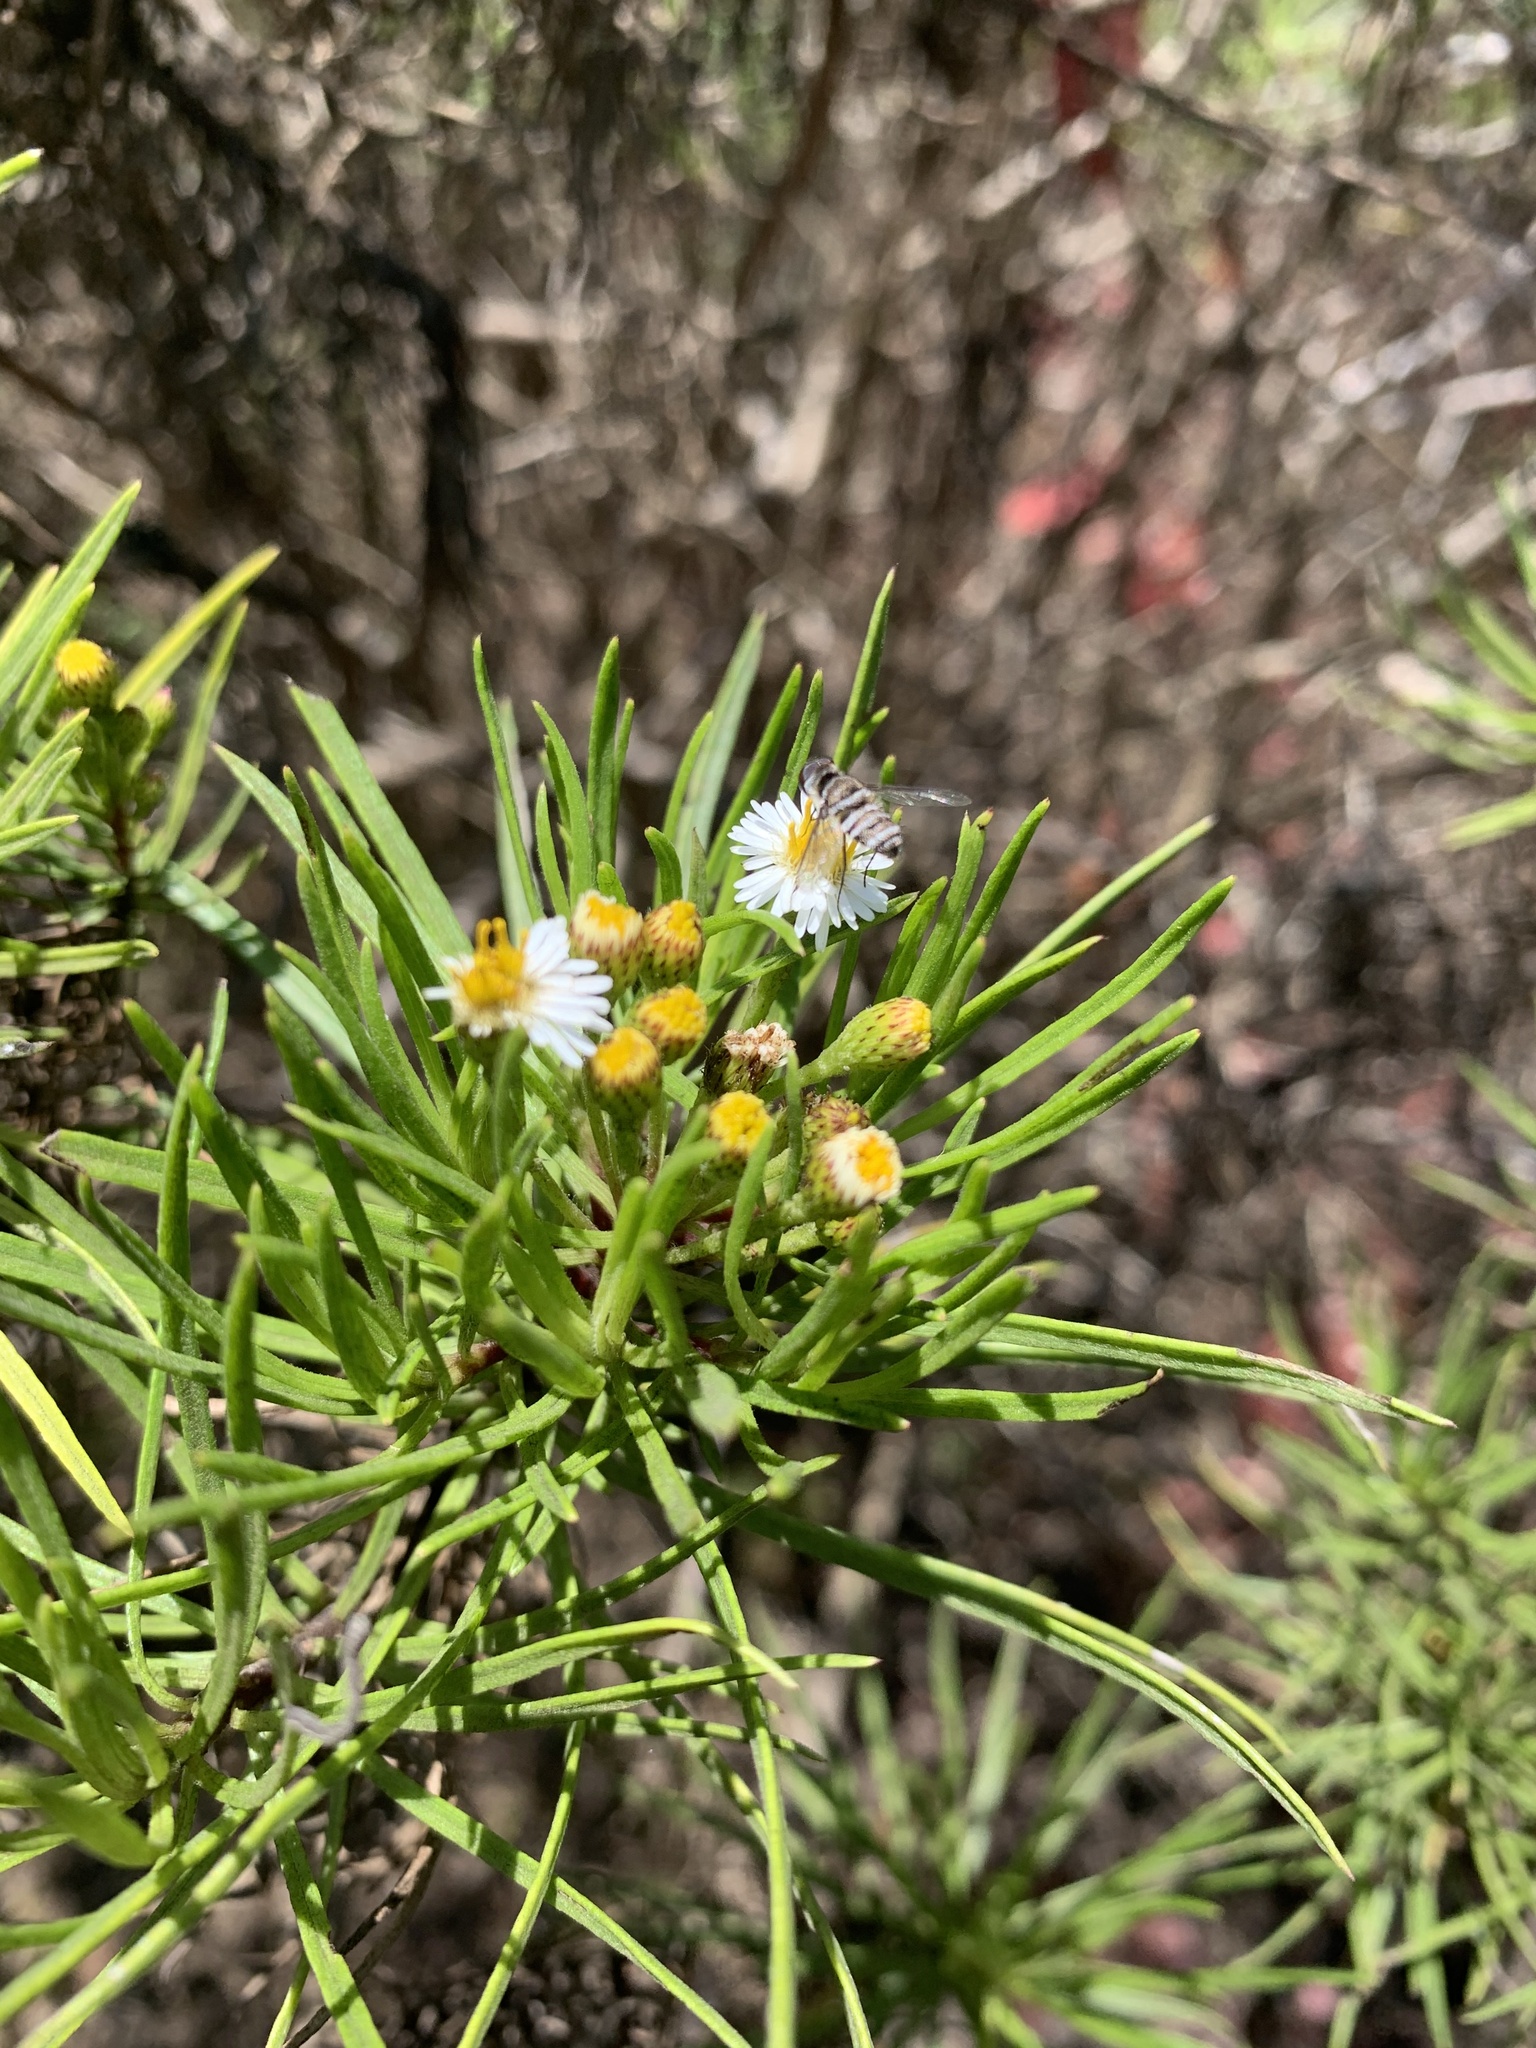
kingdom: Plantae
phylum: Tracheophyta
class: Magnoliopsida
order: Asterales
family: Asteraceae
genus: Erigeron
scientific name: Erigeron tenuifolius
